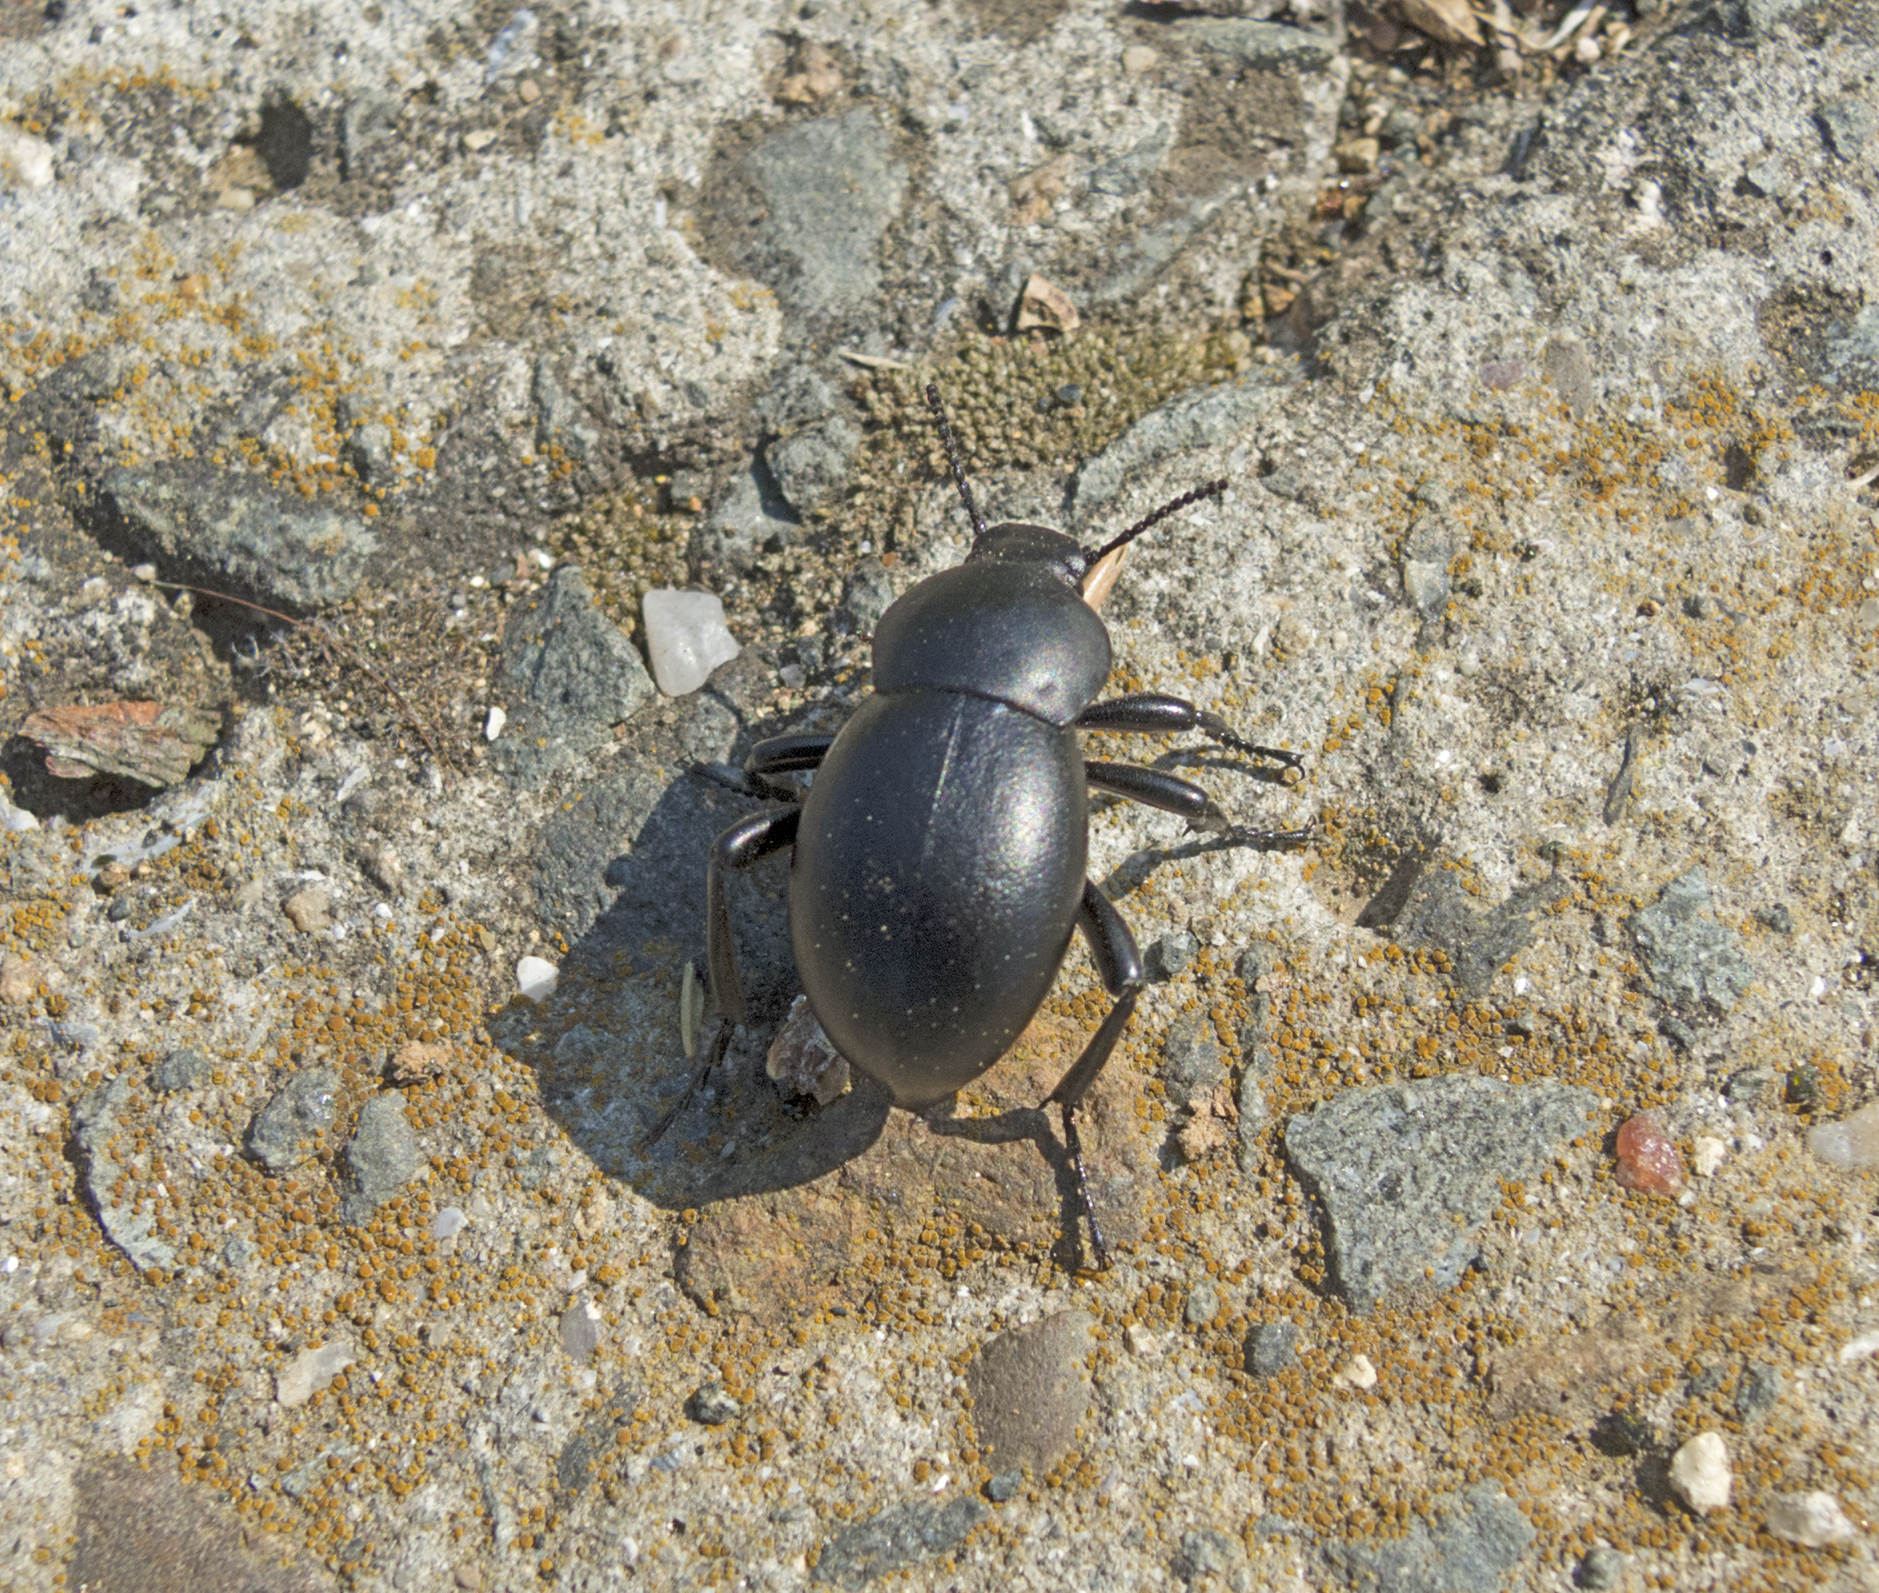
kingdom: Animalia
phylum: Arthropoda
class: Insecta
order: Coleoptera
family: Tenebrionidae
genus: Gnaptor
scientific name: Gnaptor spinimanus
